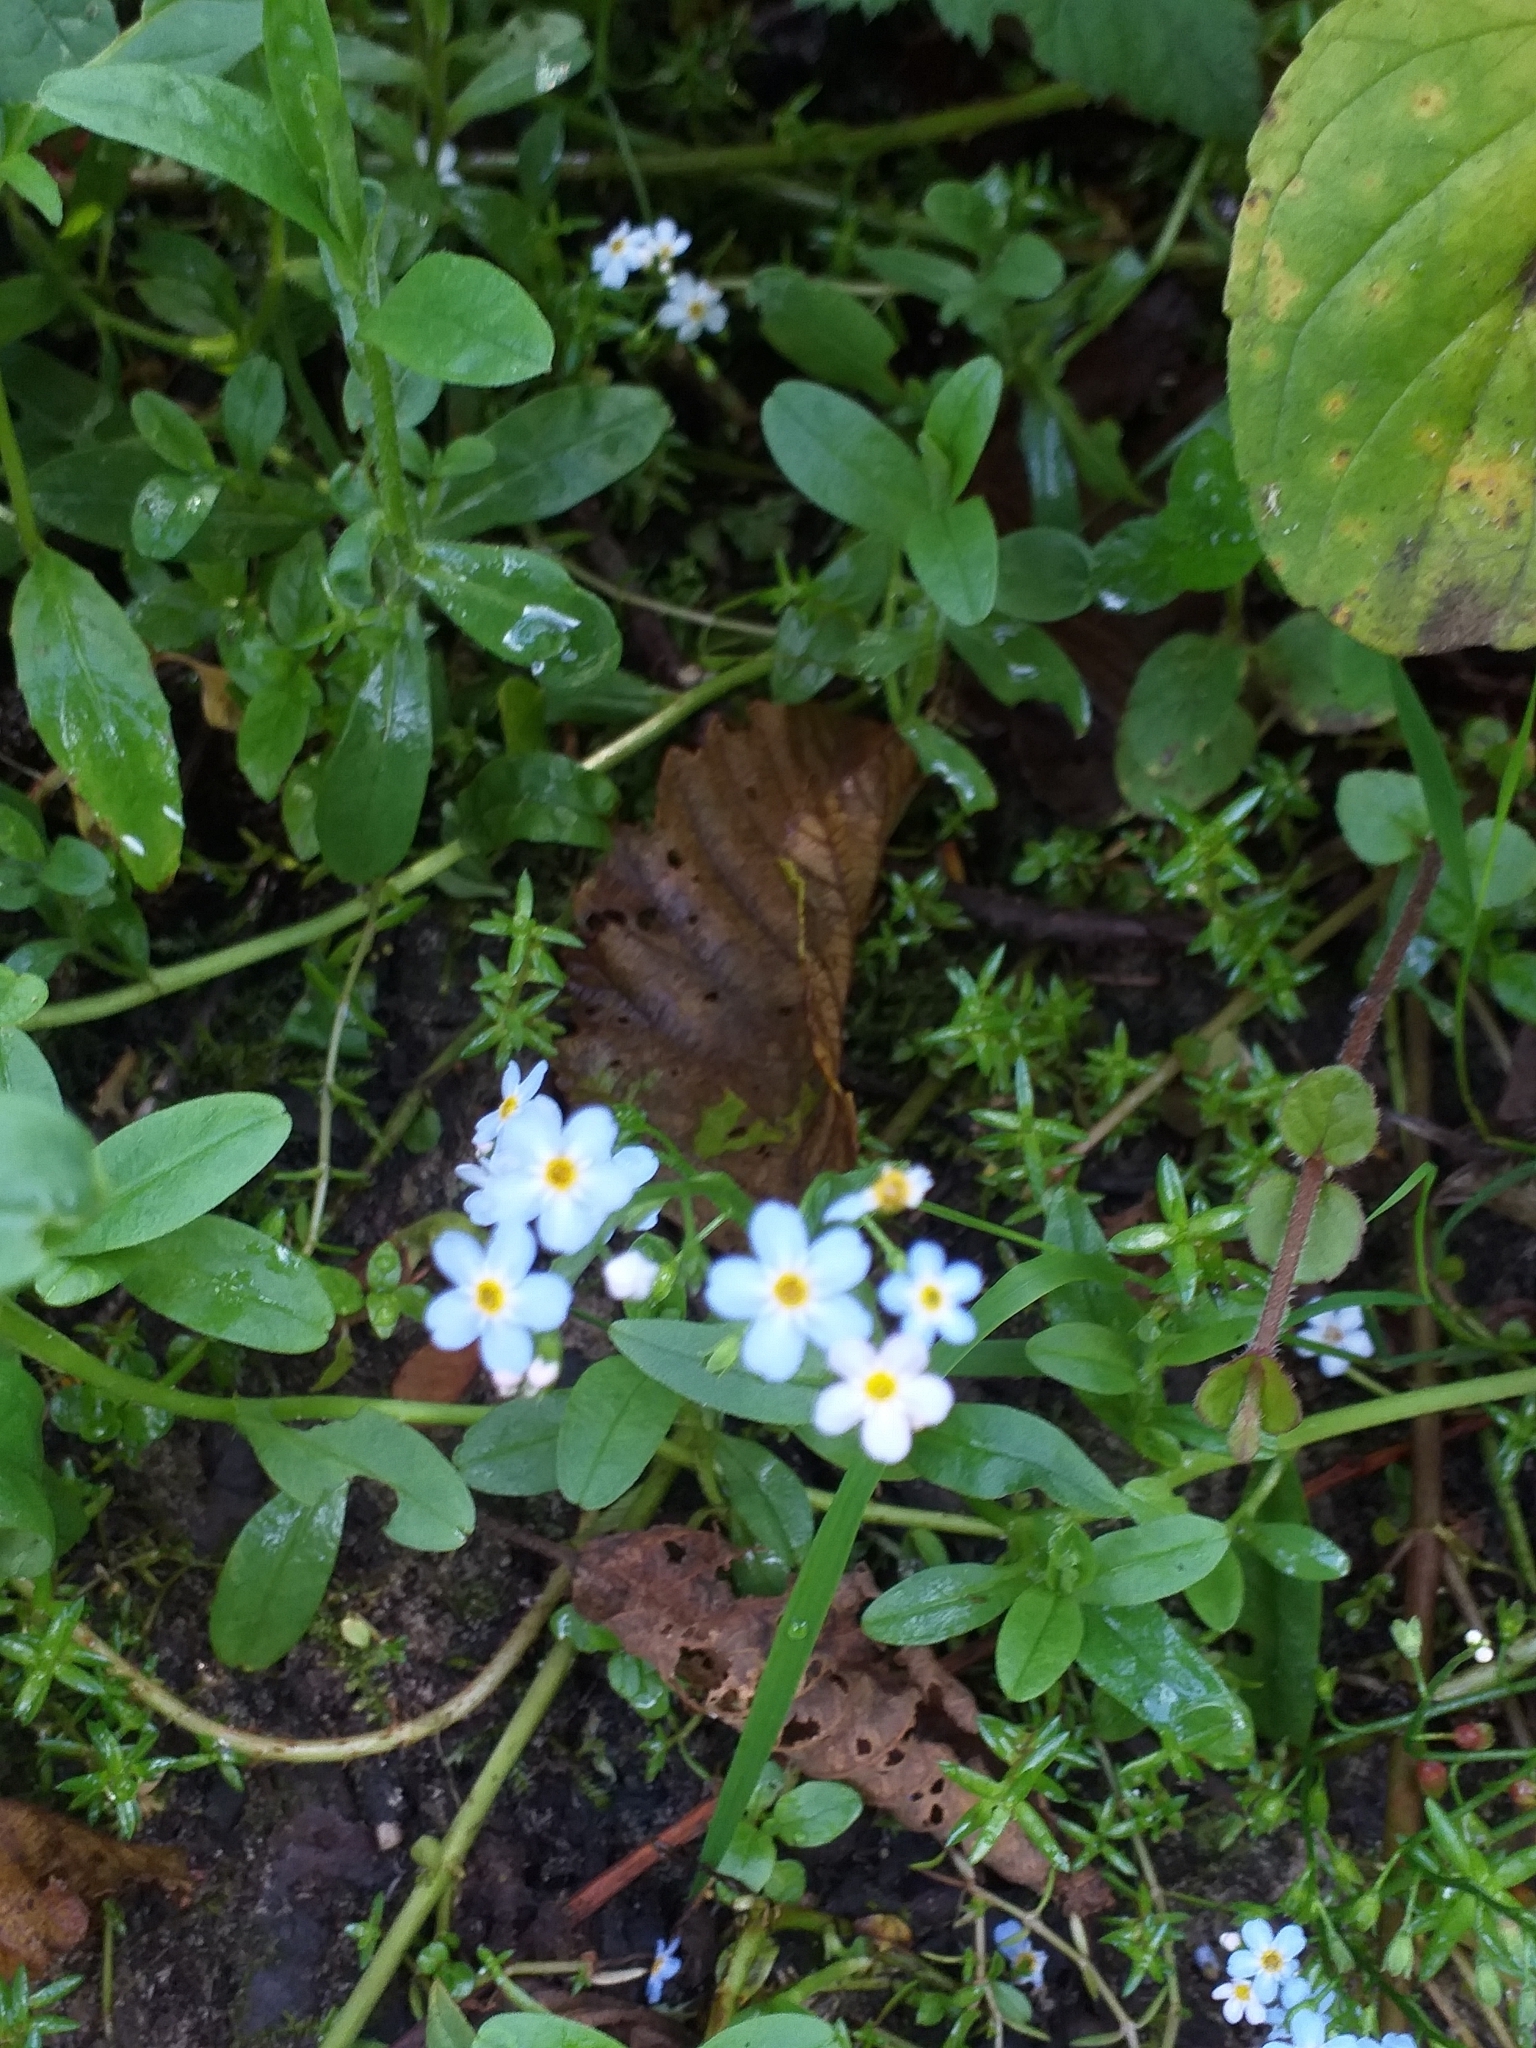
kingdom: Plantae
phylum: Tracheophyta
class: Magnoliopsida
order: Boraginales
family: Boraginaceae
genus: Myosotis
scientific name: Myosotis scorpioides
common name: Water forget-me-not
